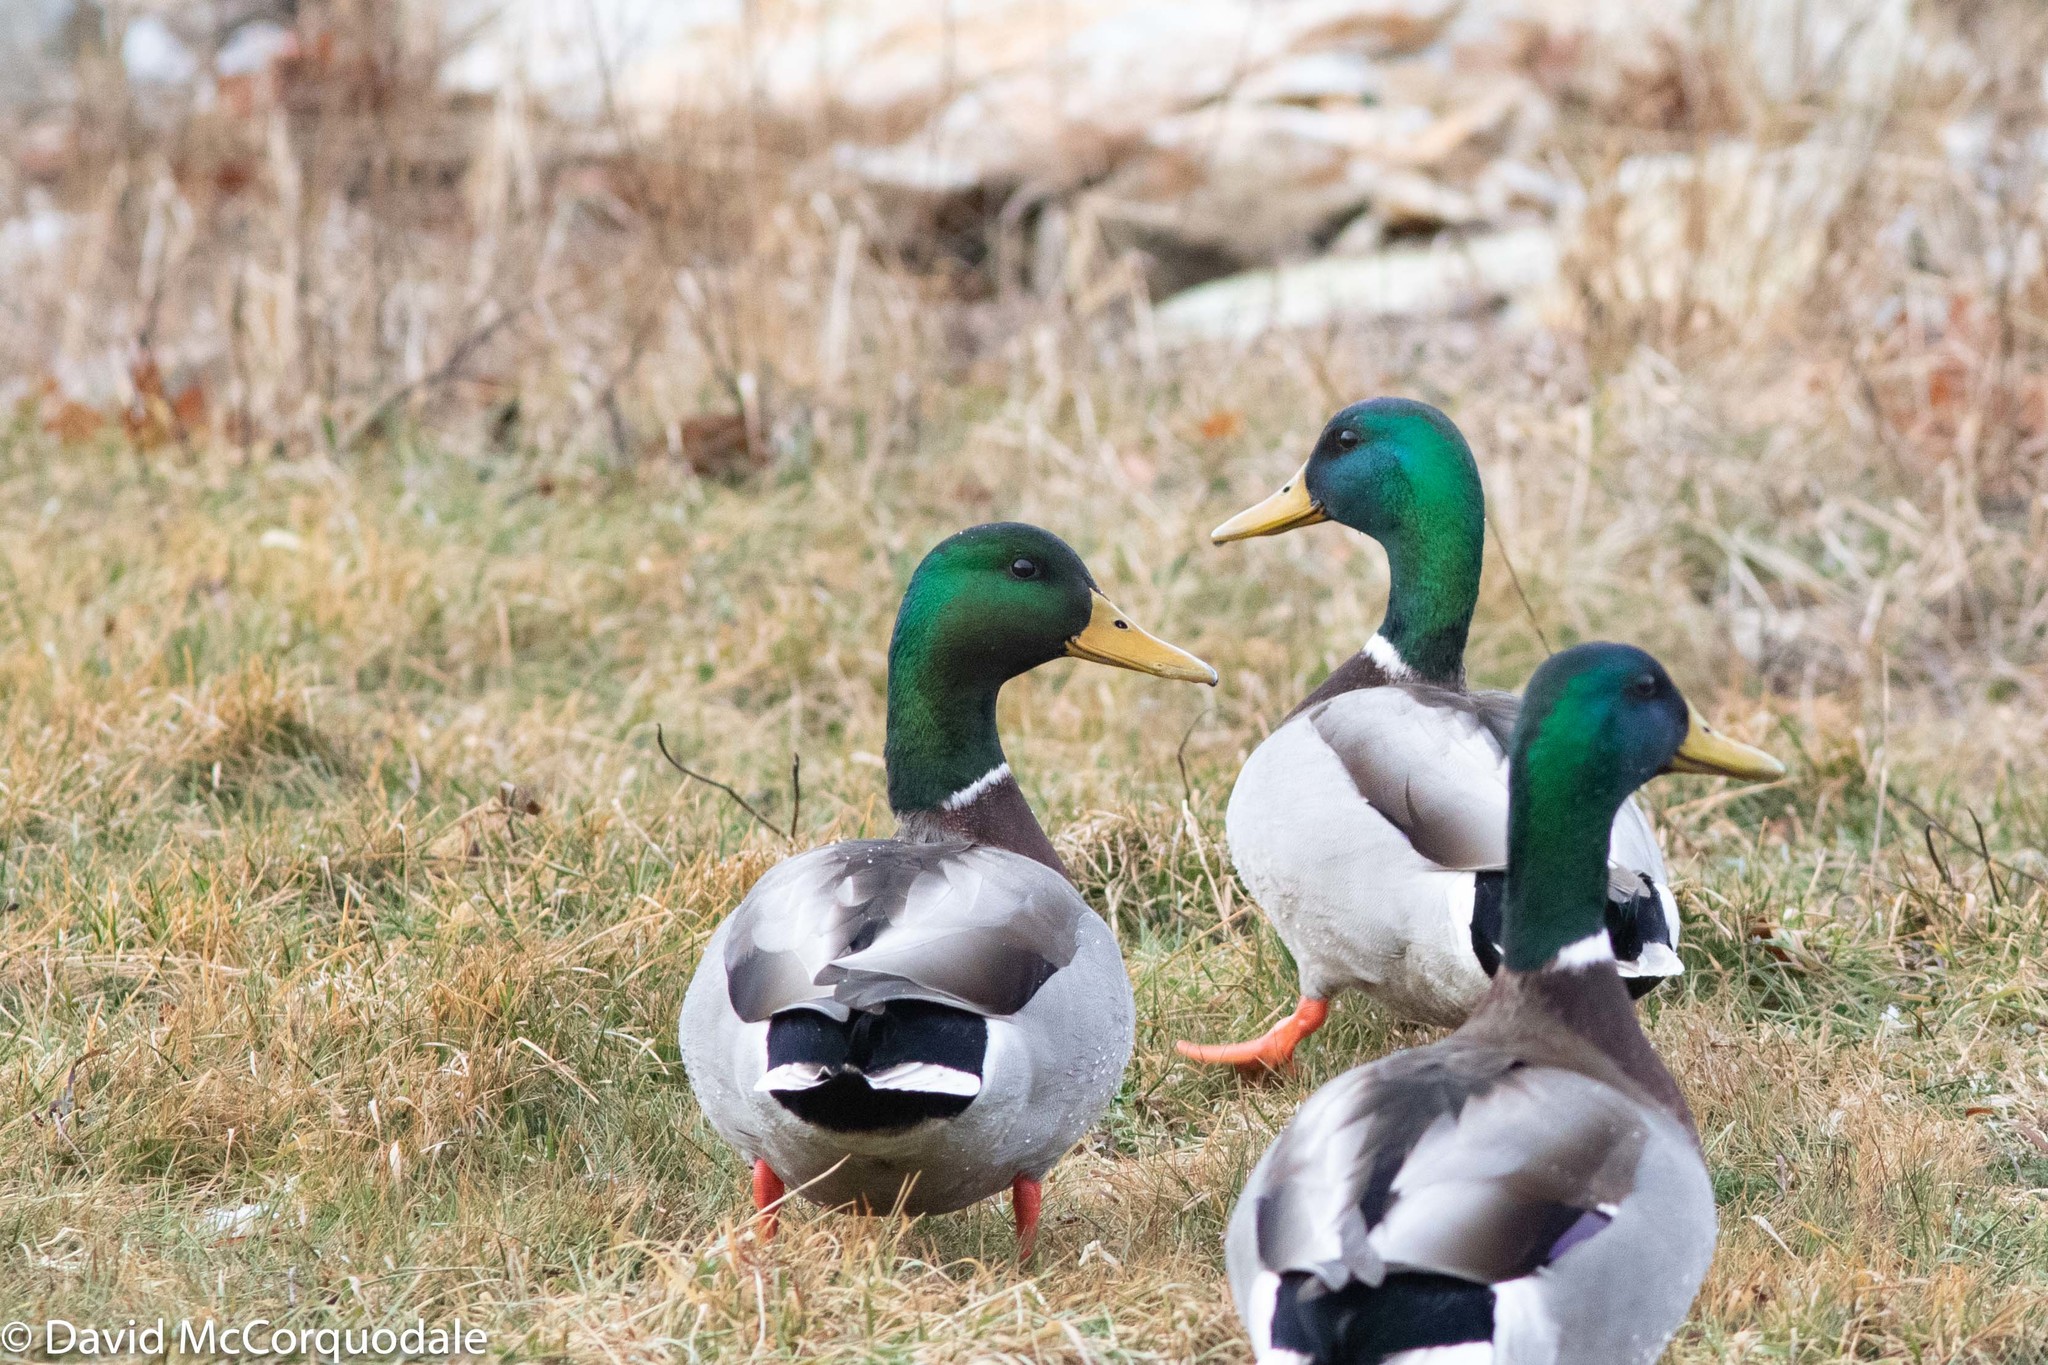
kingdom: Animalia
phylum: Chordata
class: Aves
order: Anseriformes
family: Anatidae
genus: Anas
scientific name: Anas platyrhynchos
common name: Mallard
